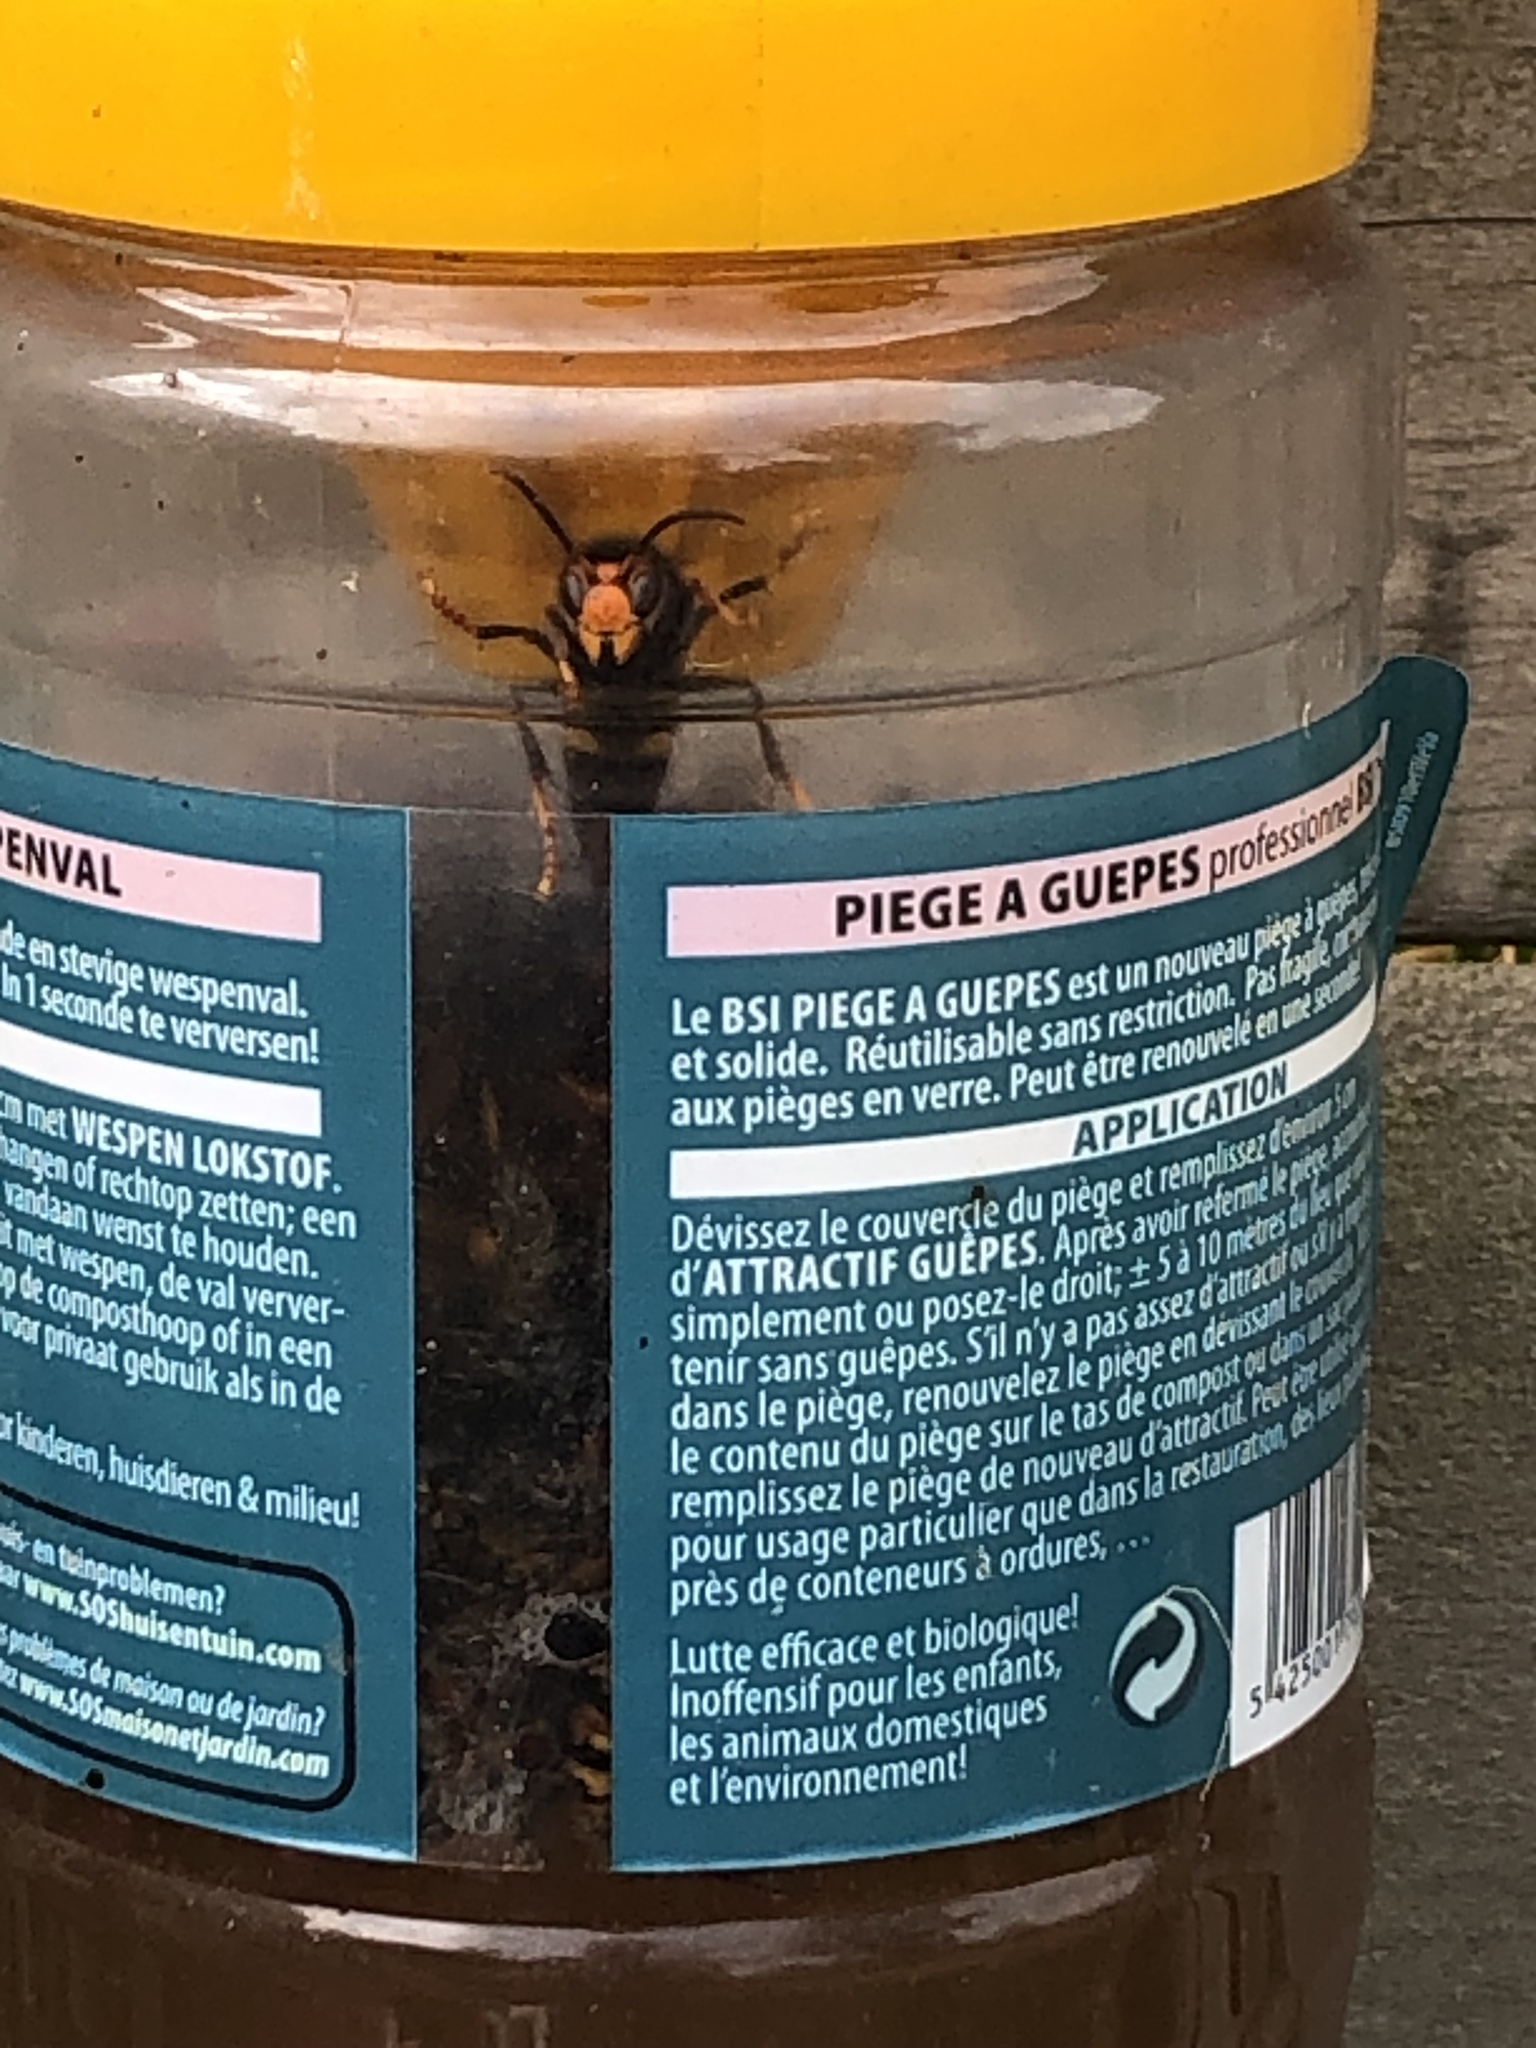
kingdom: Animalia
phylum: Arthropoda
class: Insecta
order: Hymenoptera
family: Vespidae
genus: Vespa
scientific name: Vespa velutina
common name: Asian hornet
